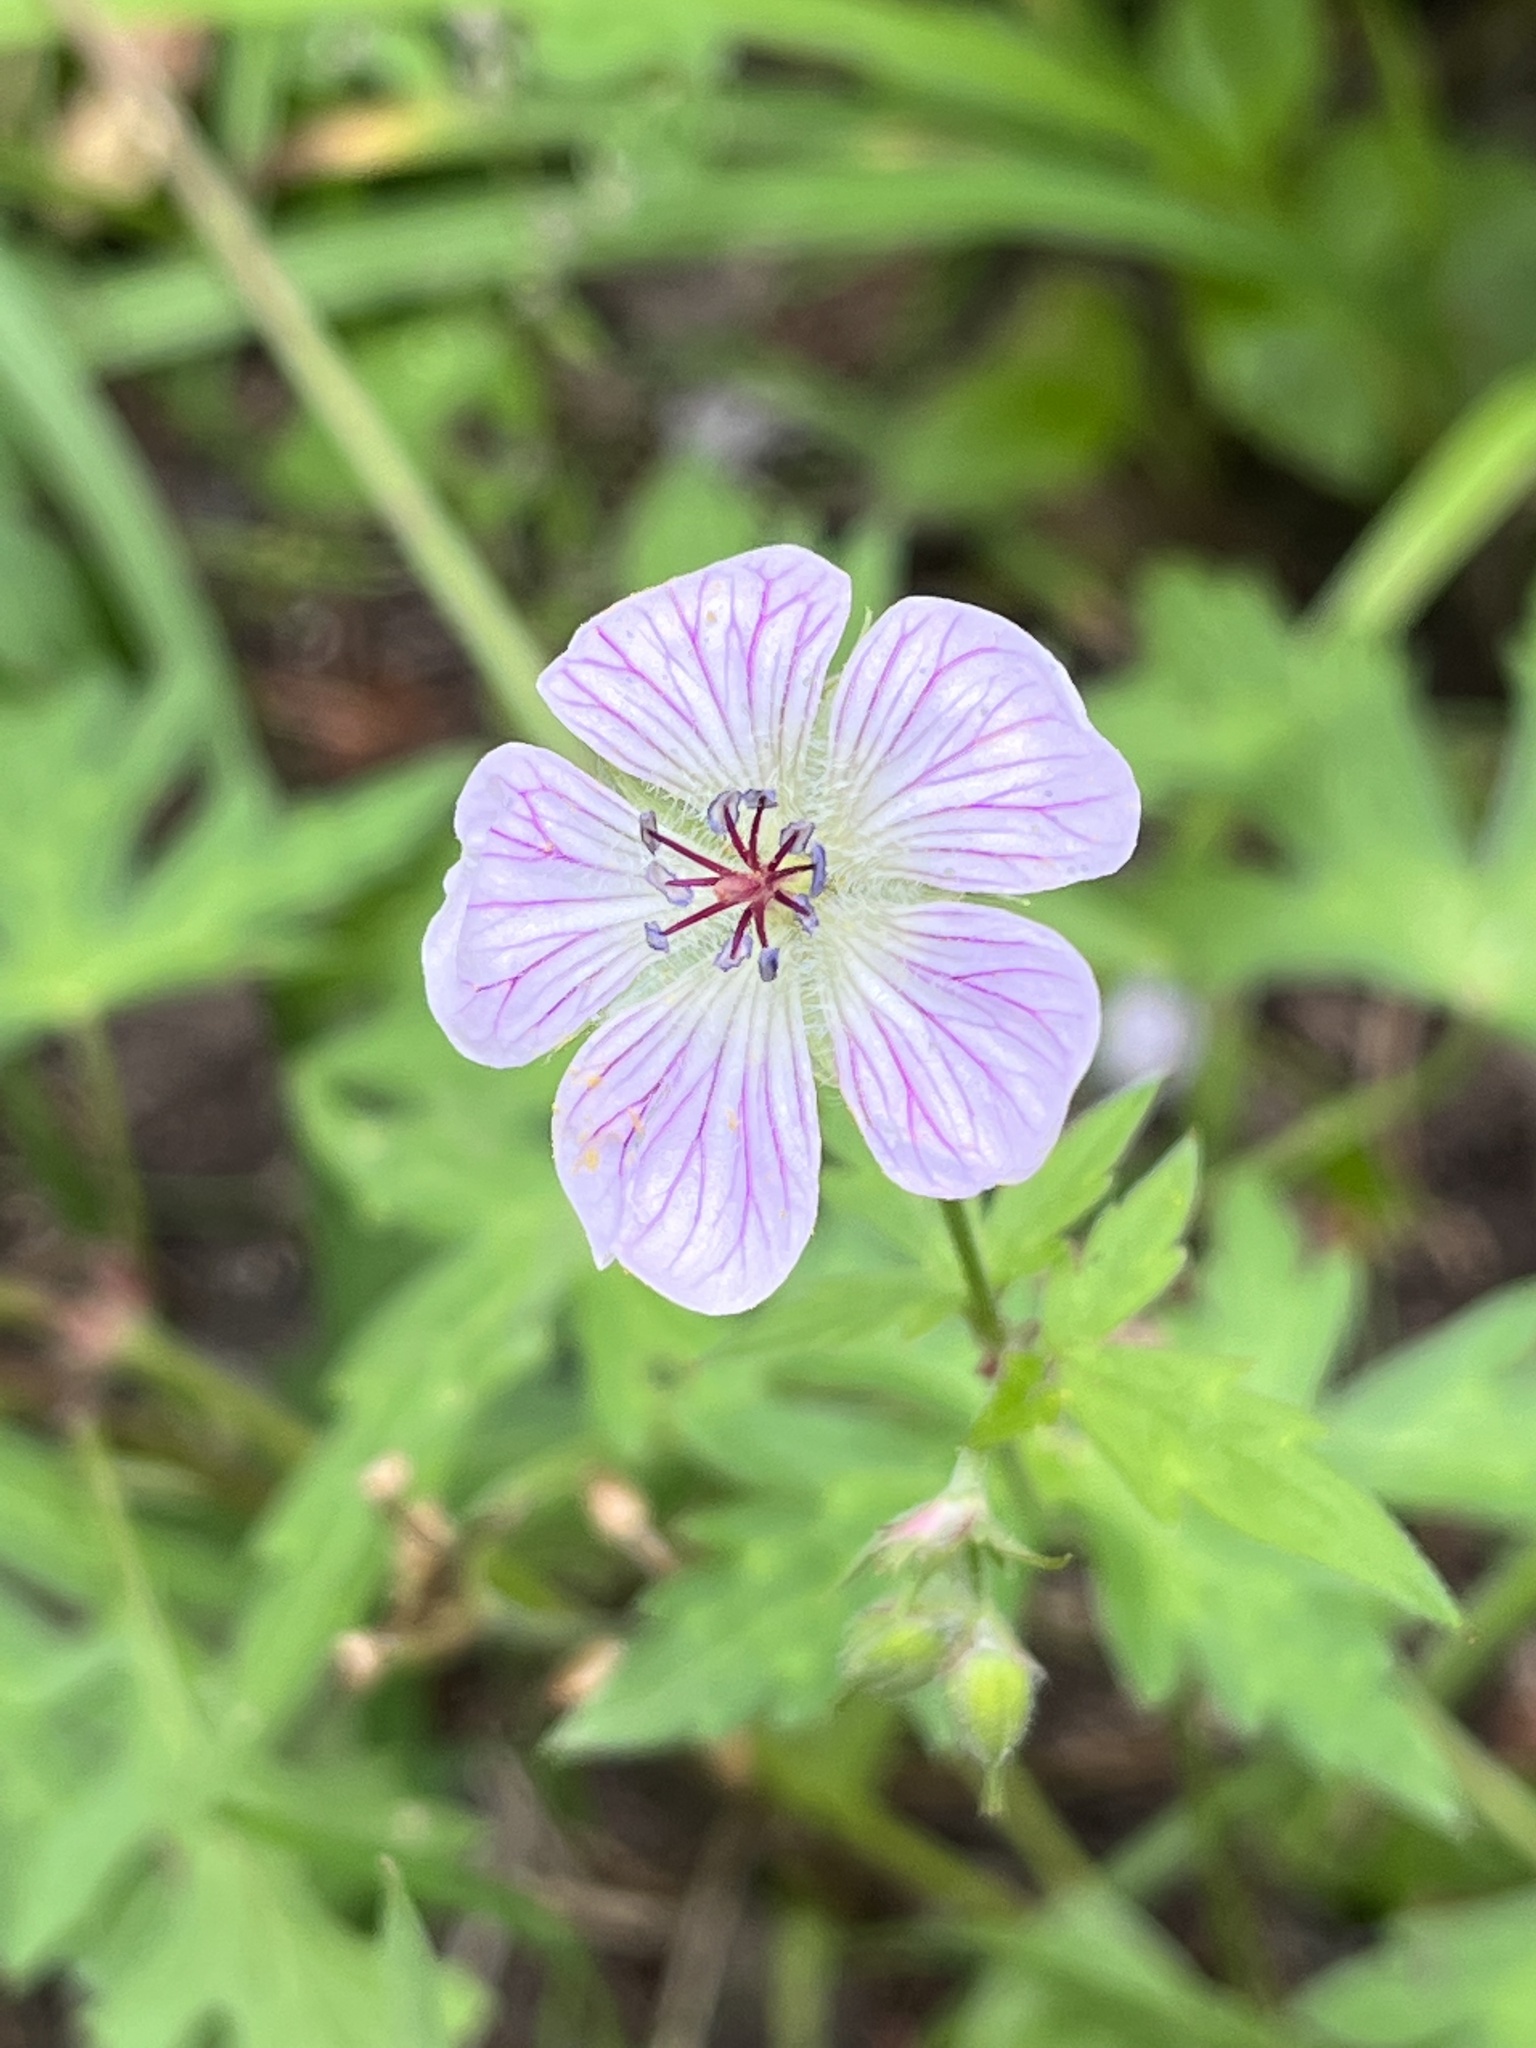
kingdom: Plantae
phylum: Tracheophyta
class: Magnoliopsida
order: Geraniales
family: Geraniaceae
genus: Geranium
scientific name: Geranium richardsonii
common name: Richardson's crane's-bill
